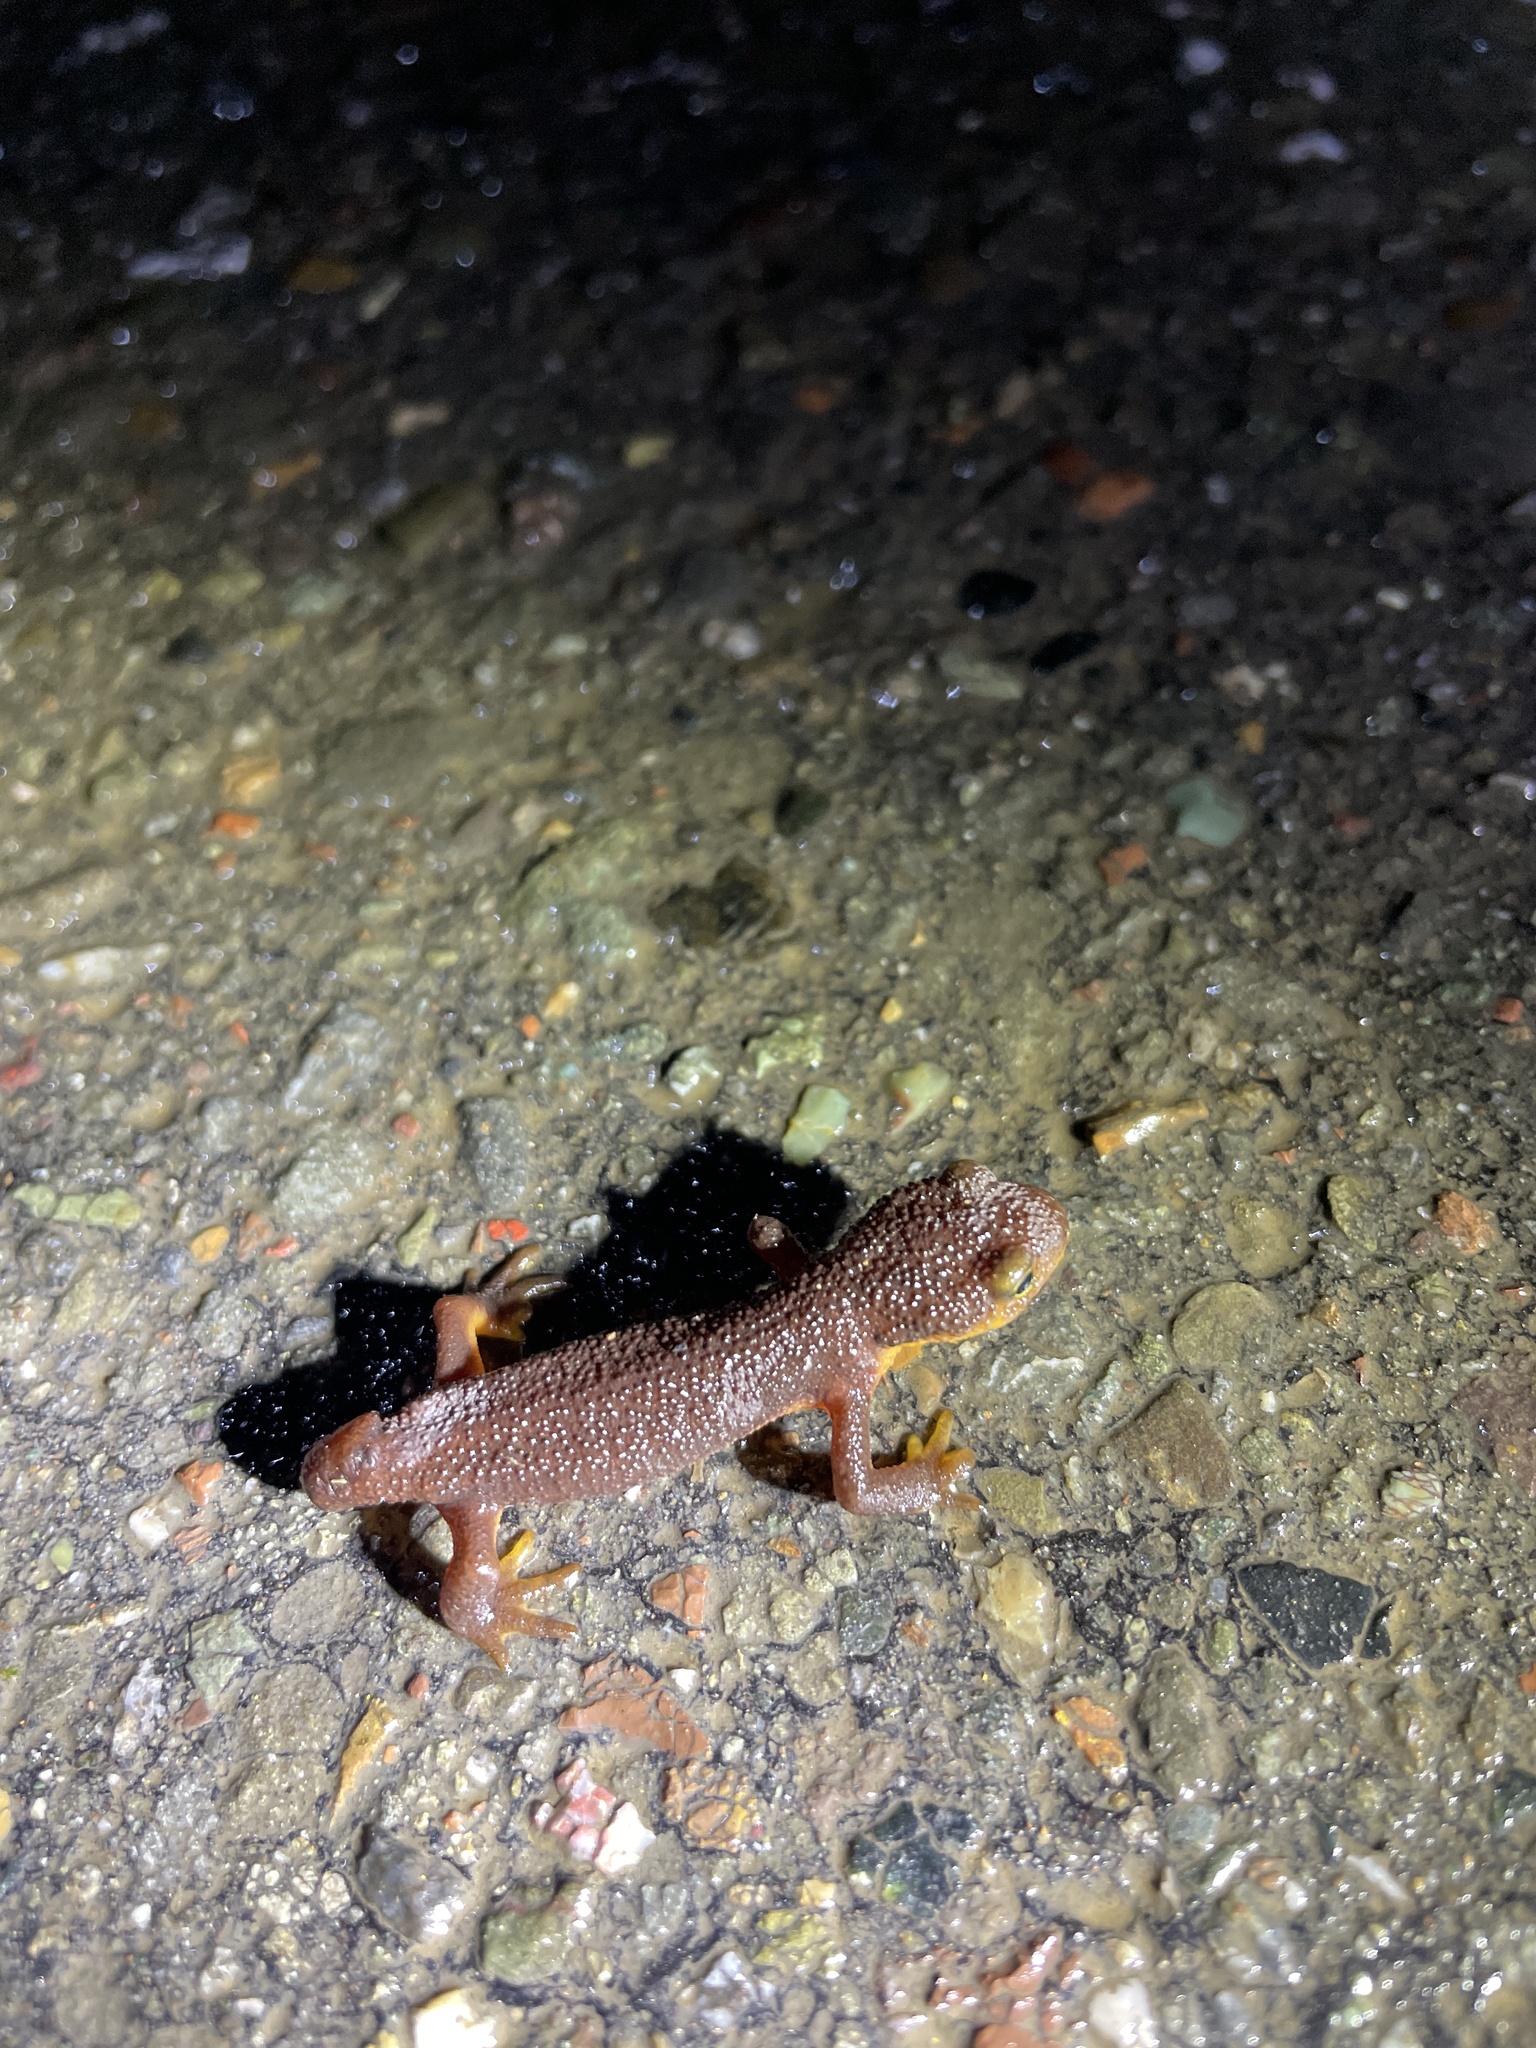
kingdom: Animalia
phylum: Chordata
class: Amphibia
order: Caudata
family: Salamandridae
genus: Taricha
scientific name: Taricha torosa
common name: California newt
